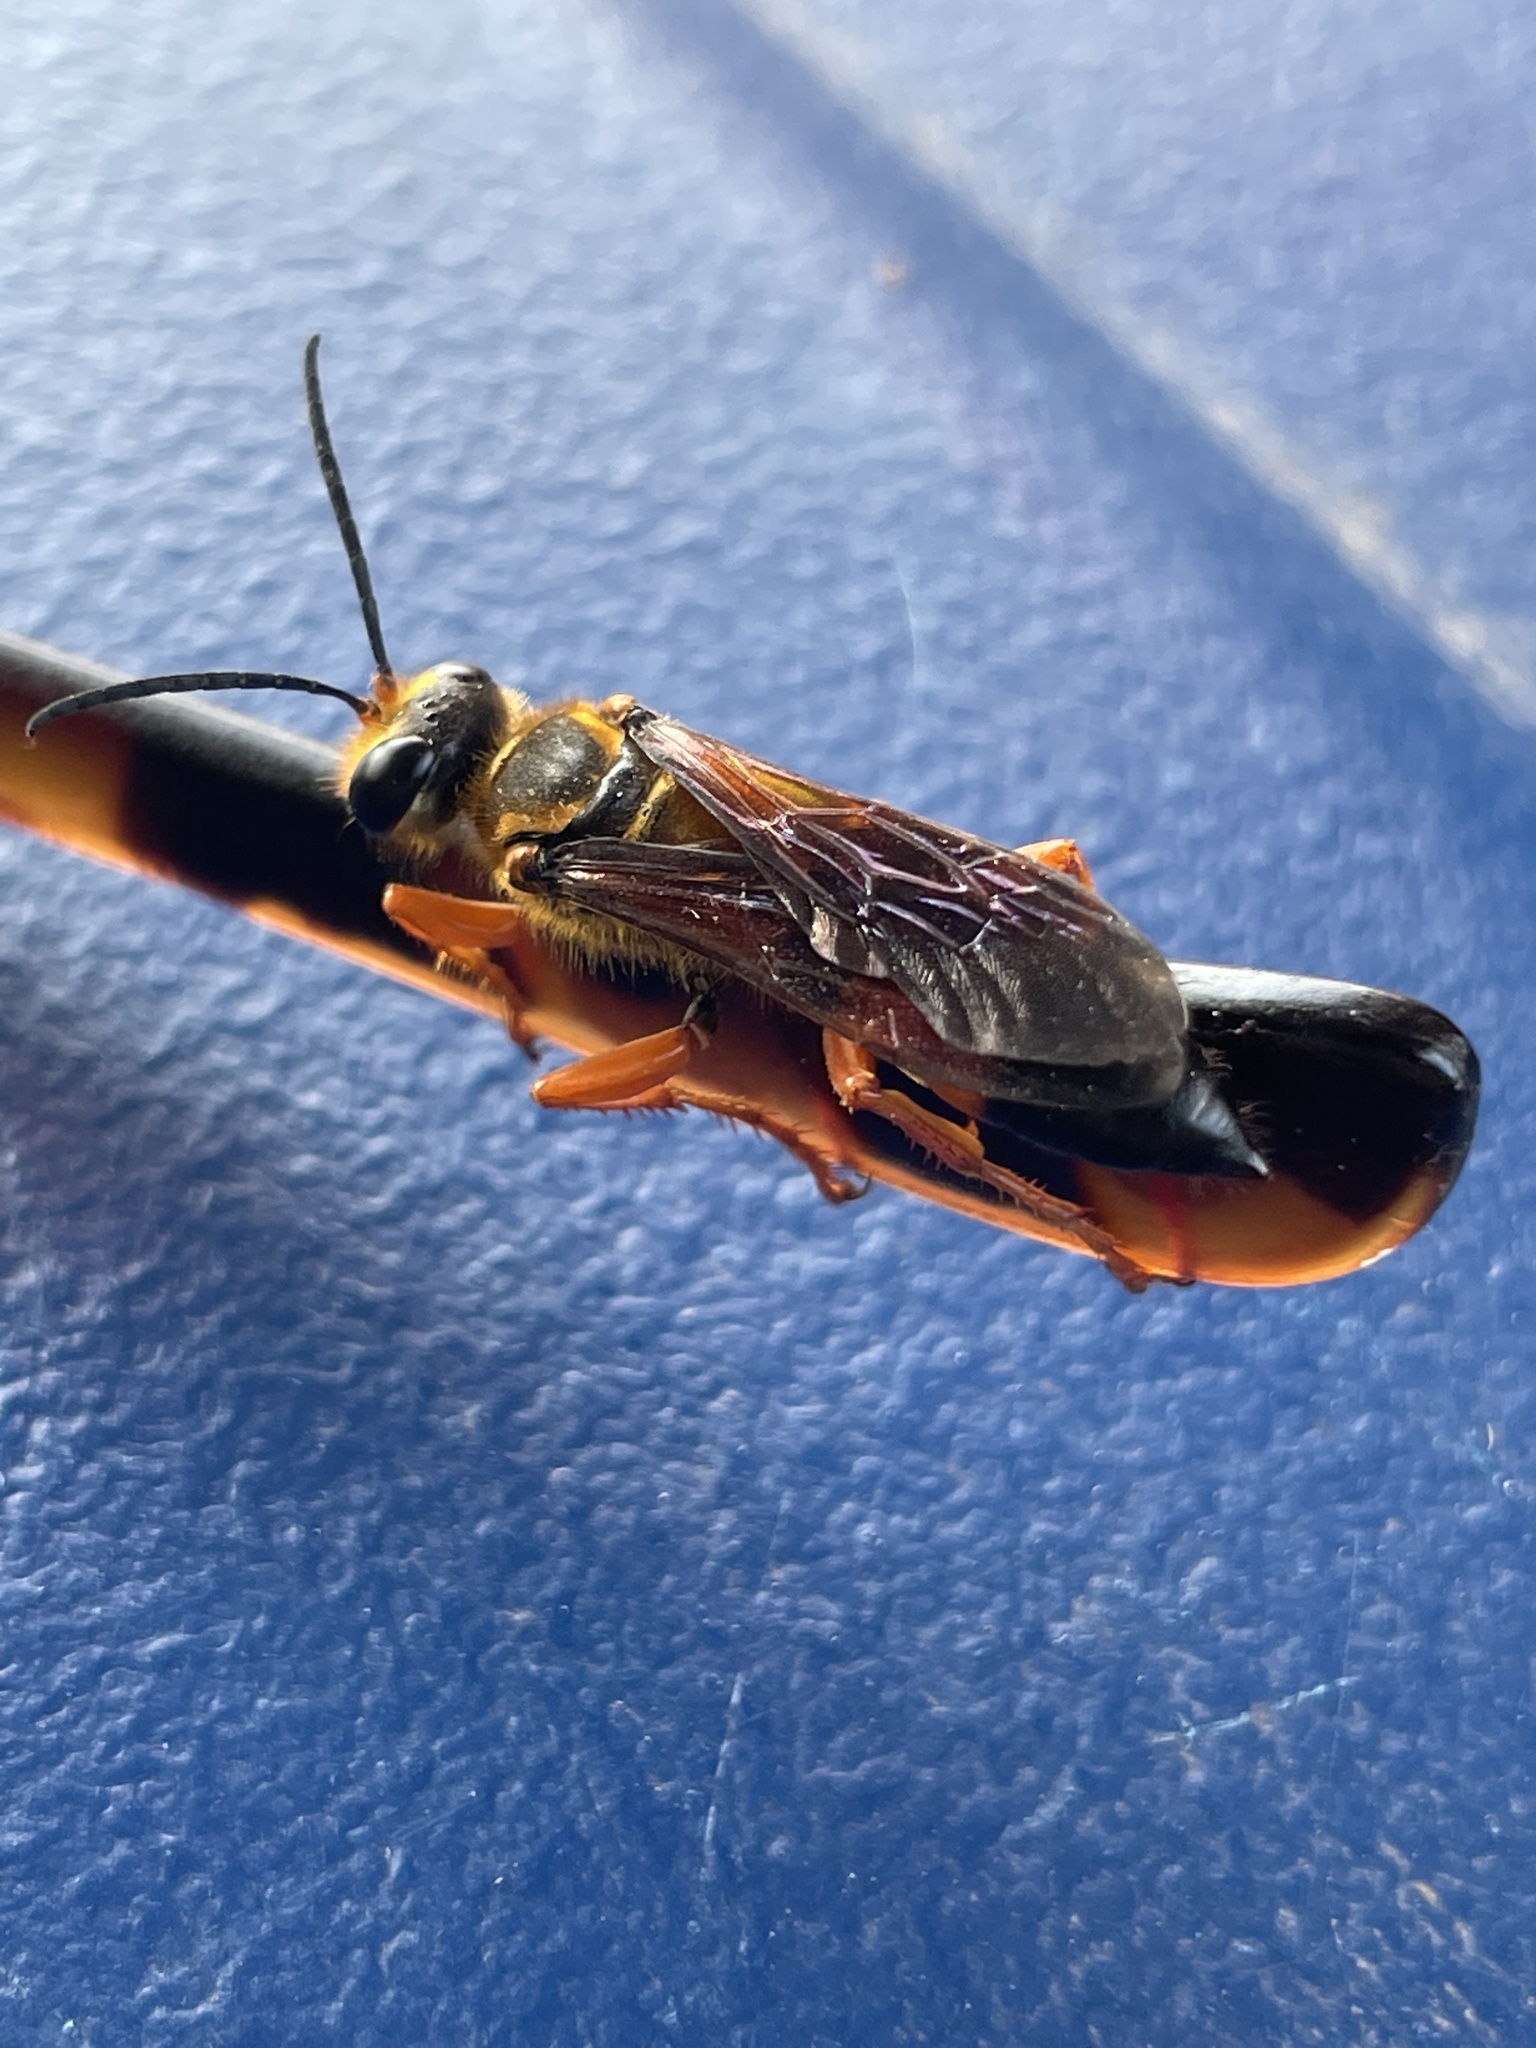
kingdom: Animalia
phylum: Arthropoda
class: Insecta
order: Hymenoptera
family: Sphecidae
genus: Sphex
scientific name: Sphex ichneumoneus
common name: Great golden digger wasp
